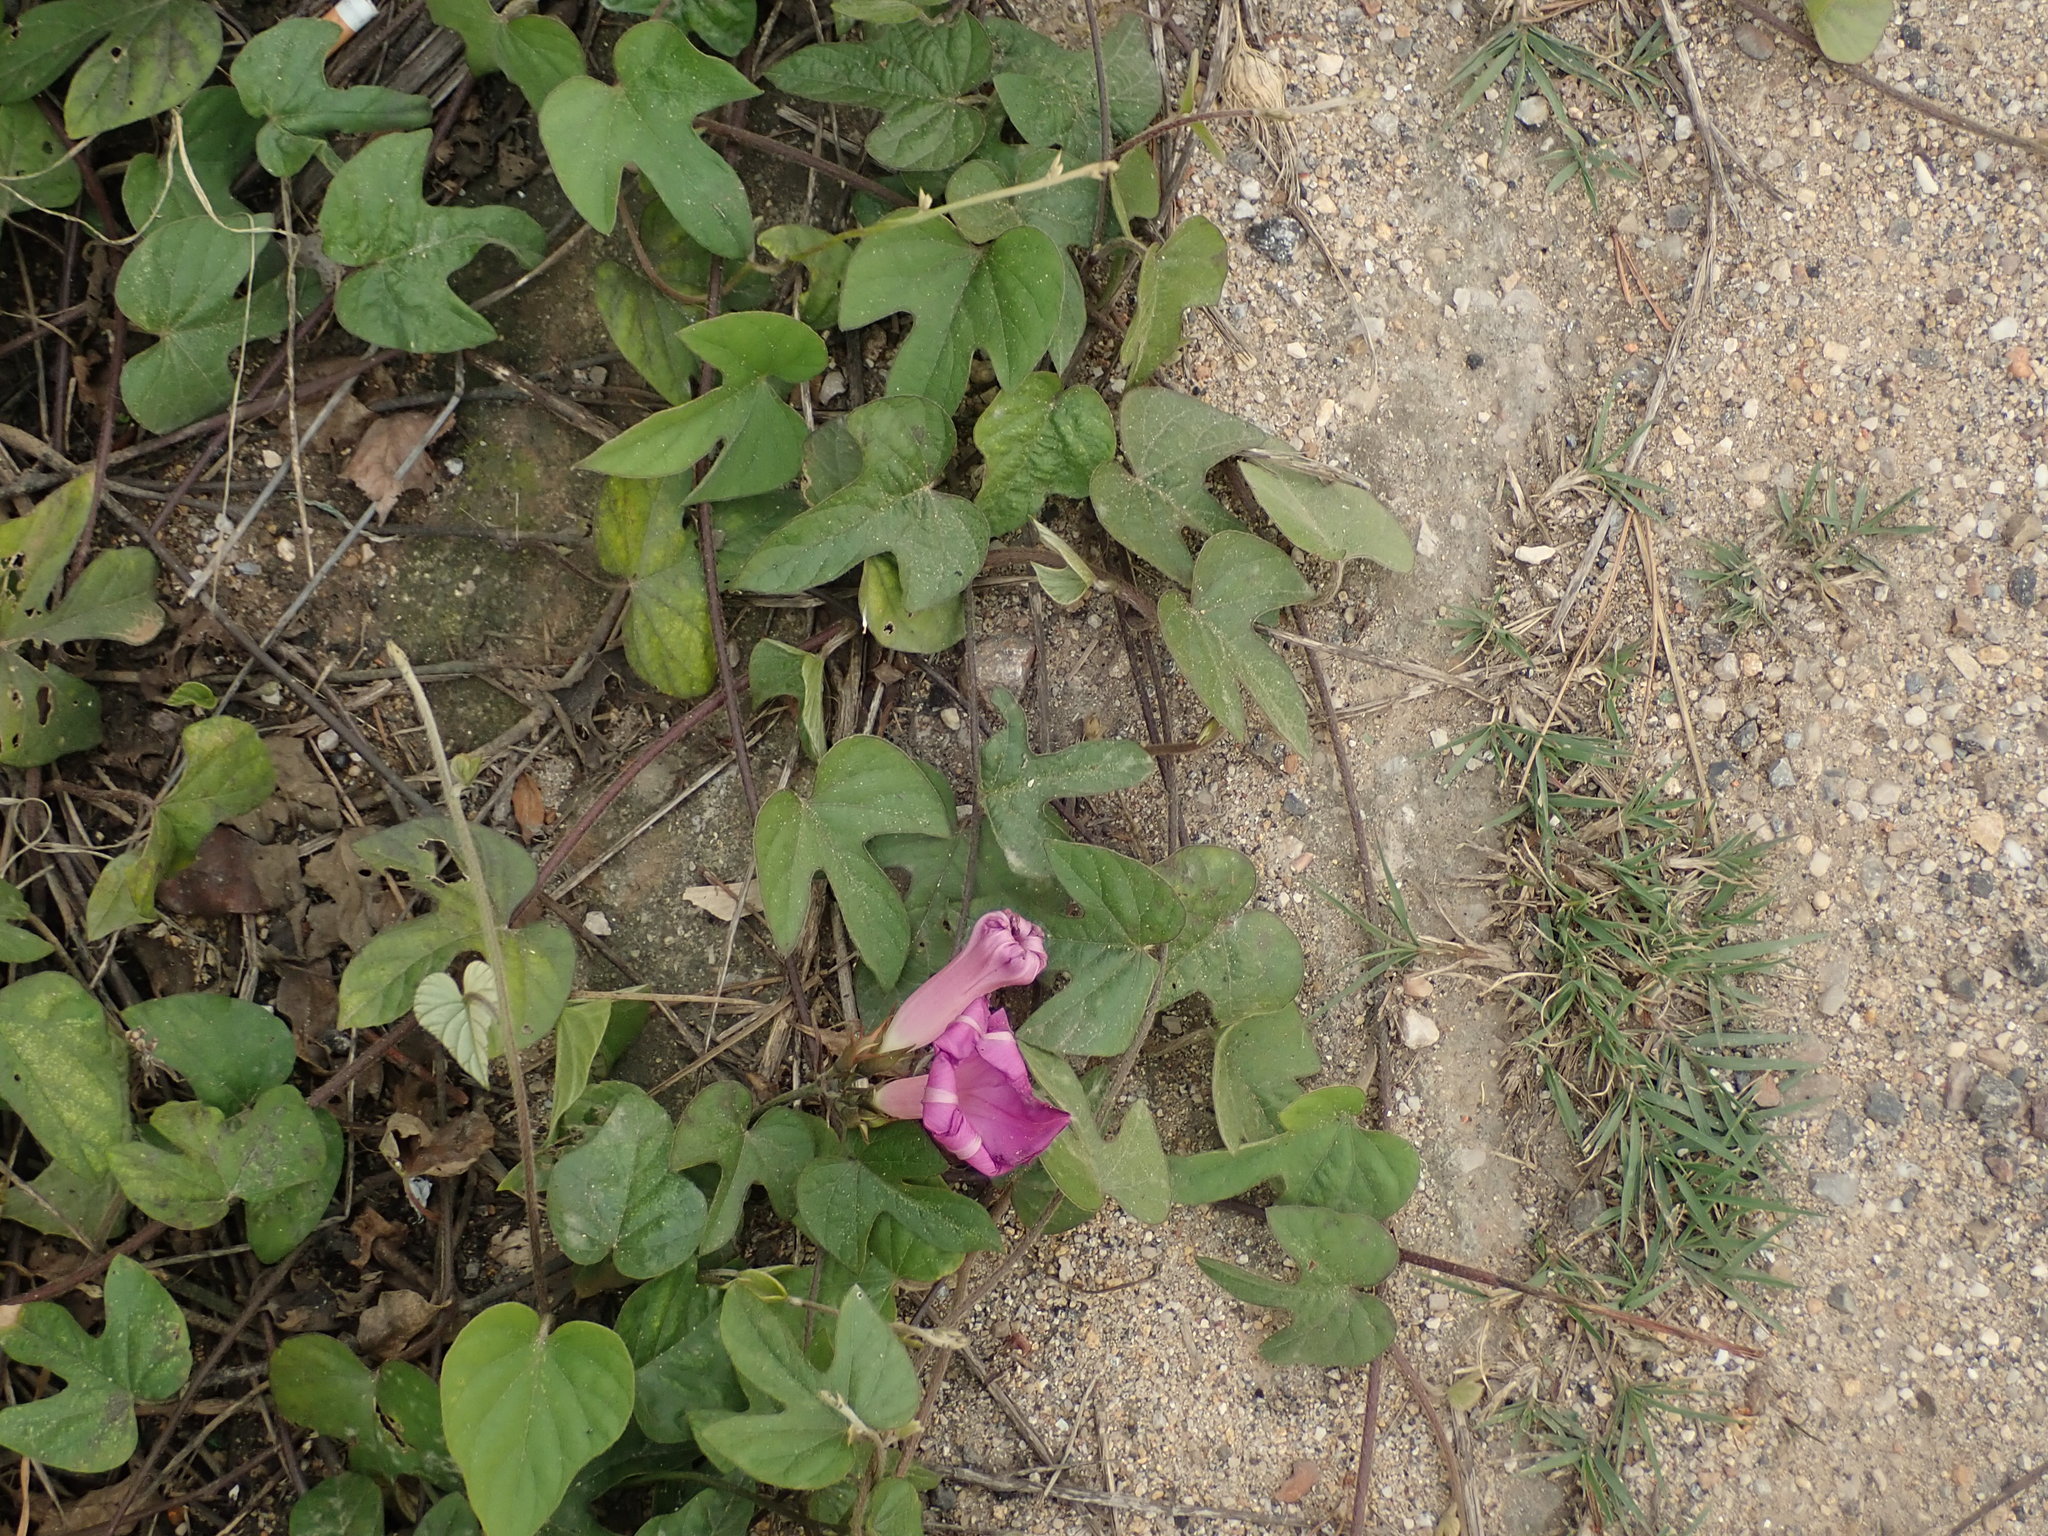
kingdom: Plantae
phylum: Tracheophyta
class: Magnoliopsida
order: Solanales
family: Convolvulaceae
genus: Ipomoea
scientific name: Ipomoea indica
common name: Blue dawnflower
